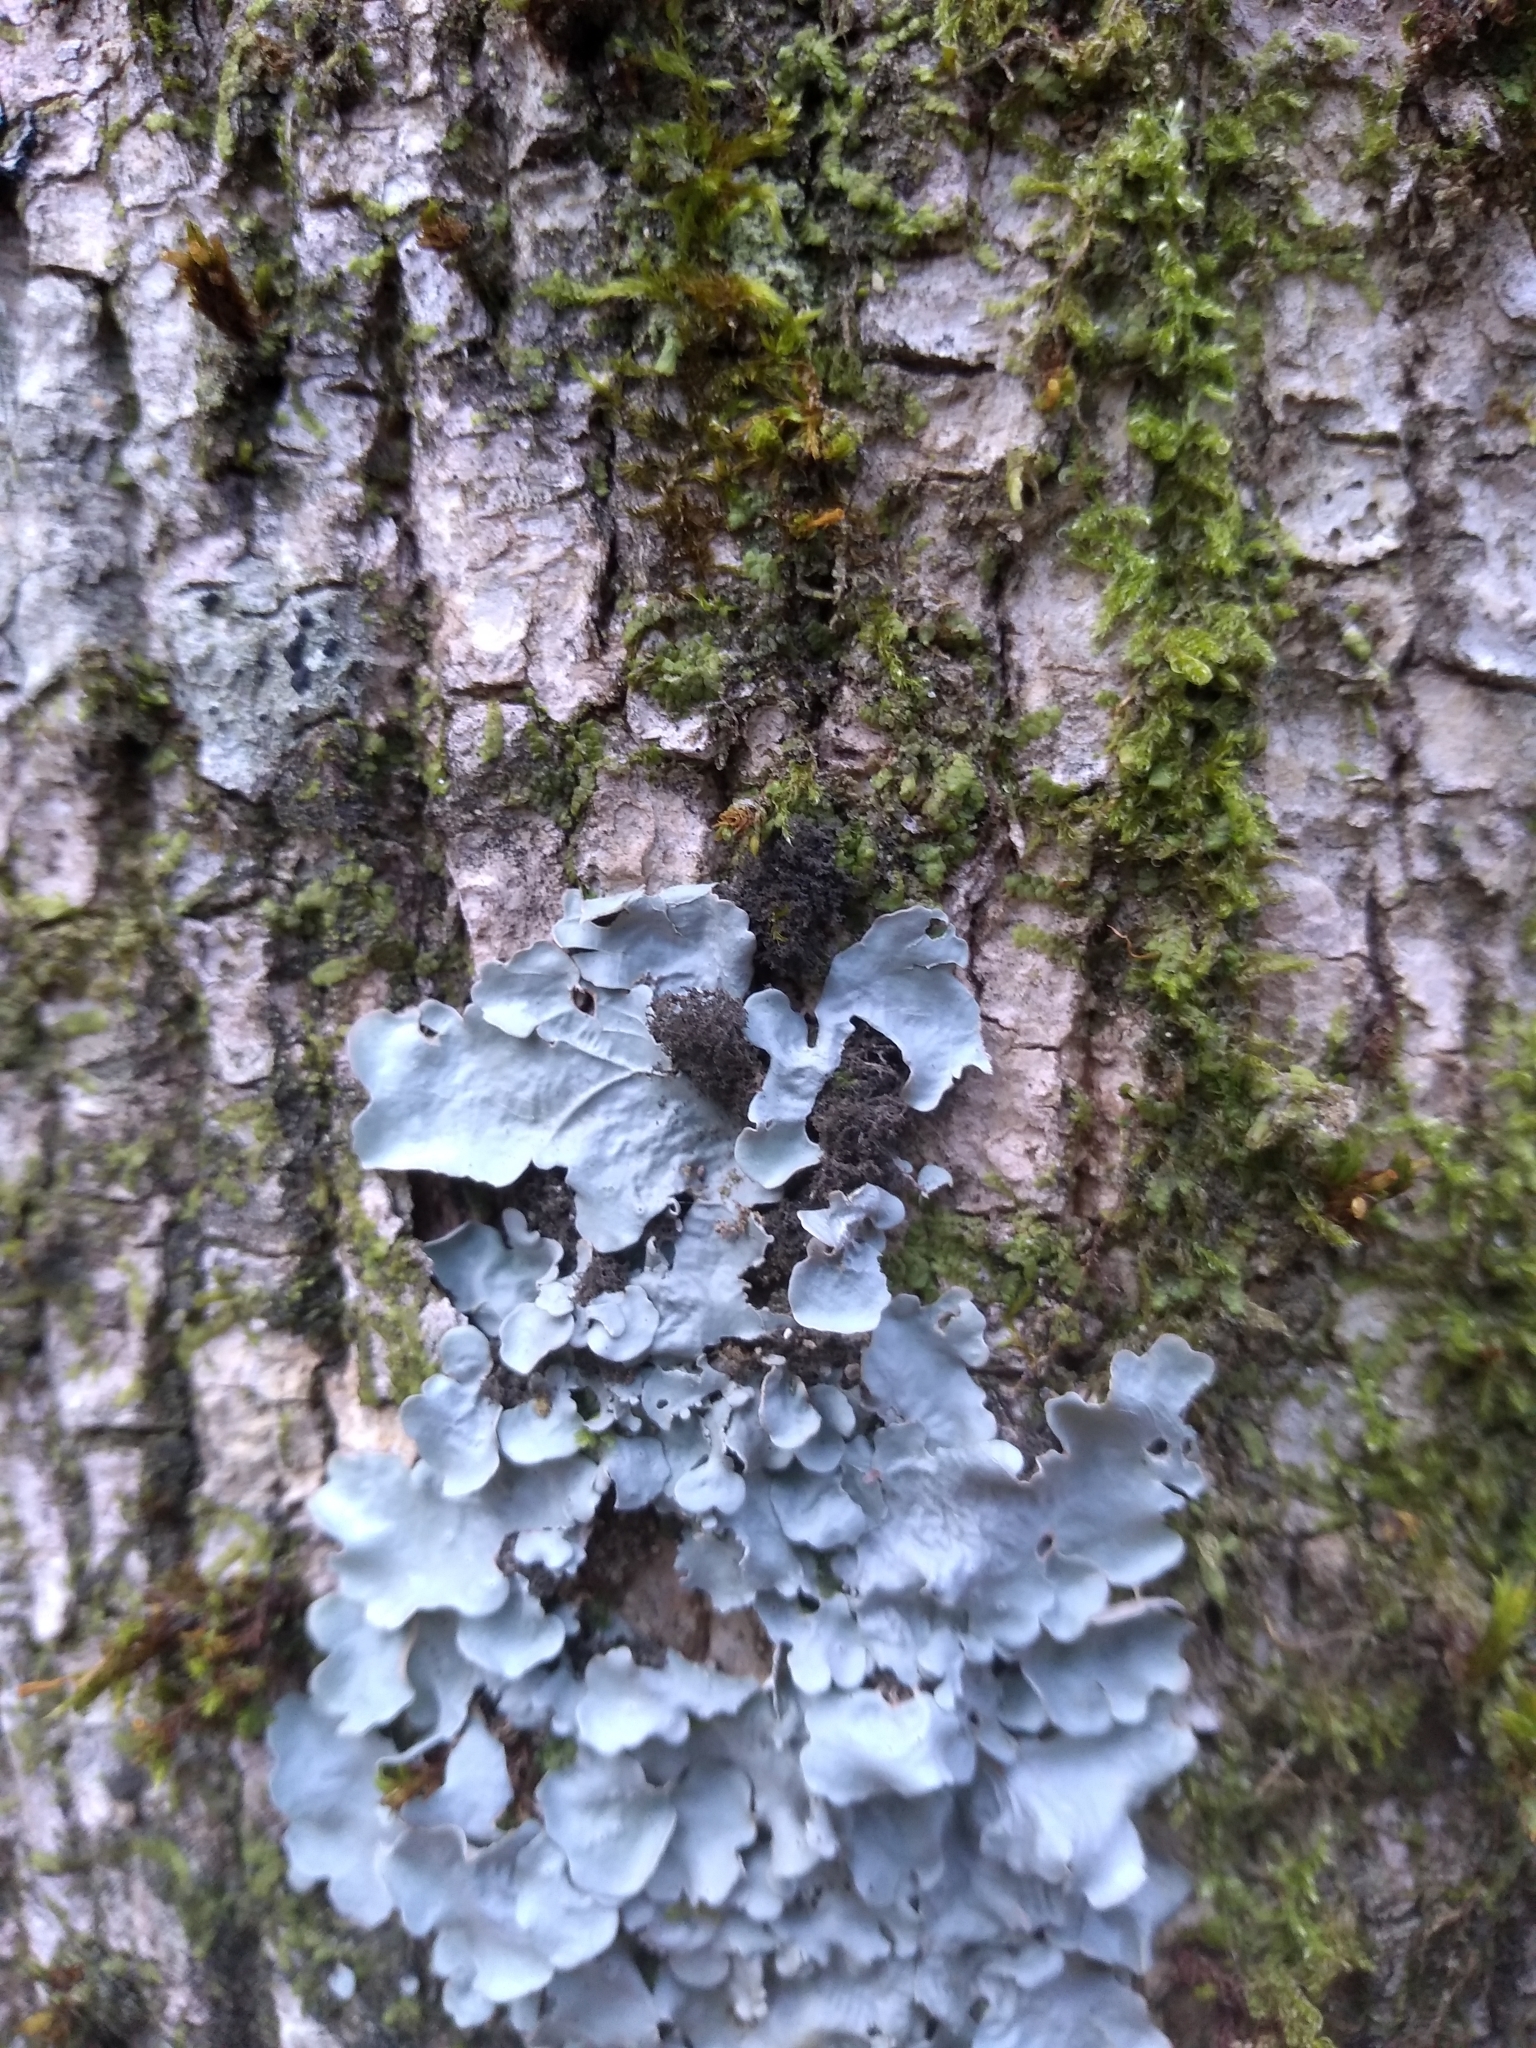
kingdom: Fungi
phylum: Ascomycota
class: Lecanoromycetes
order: Peltigerales
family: Pannariaceae
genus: Leptogidium
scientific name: Leptogidium intricatulum
